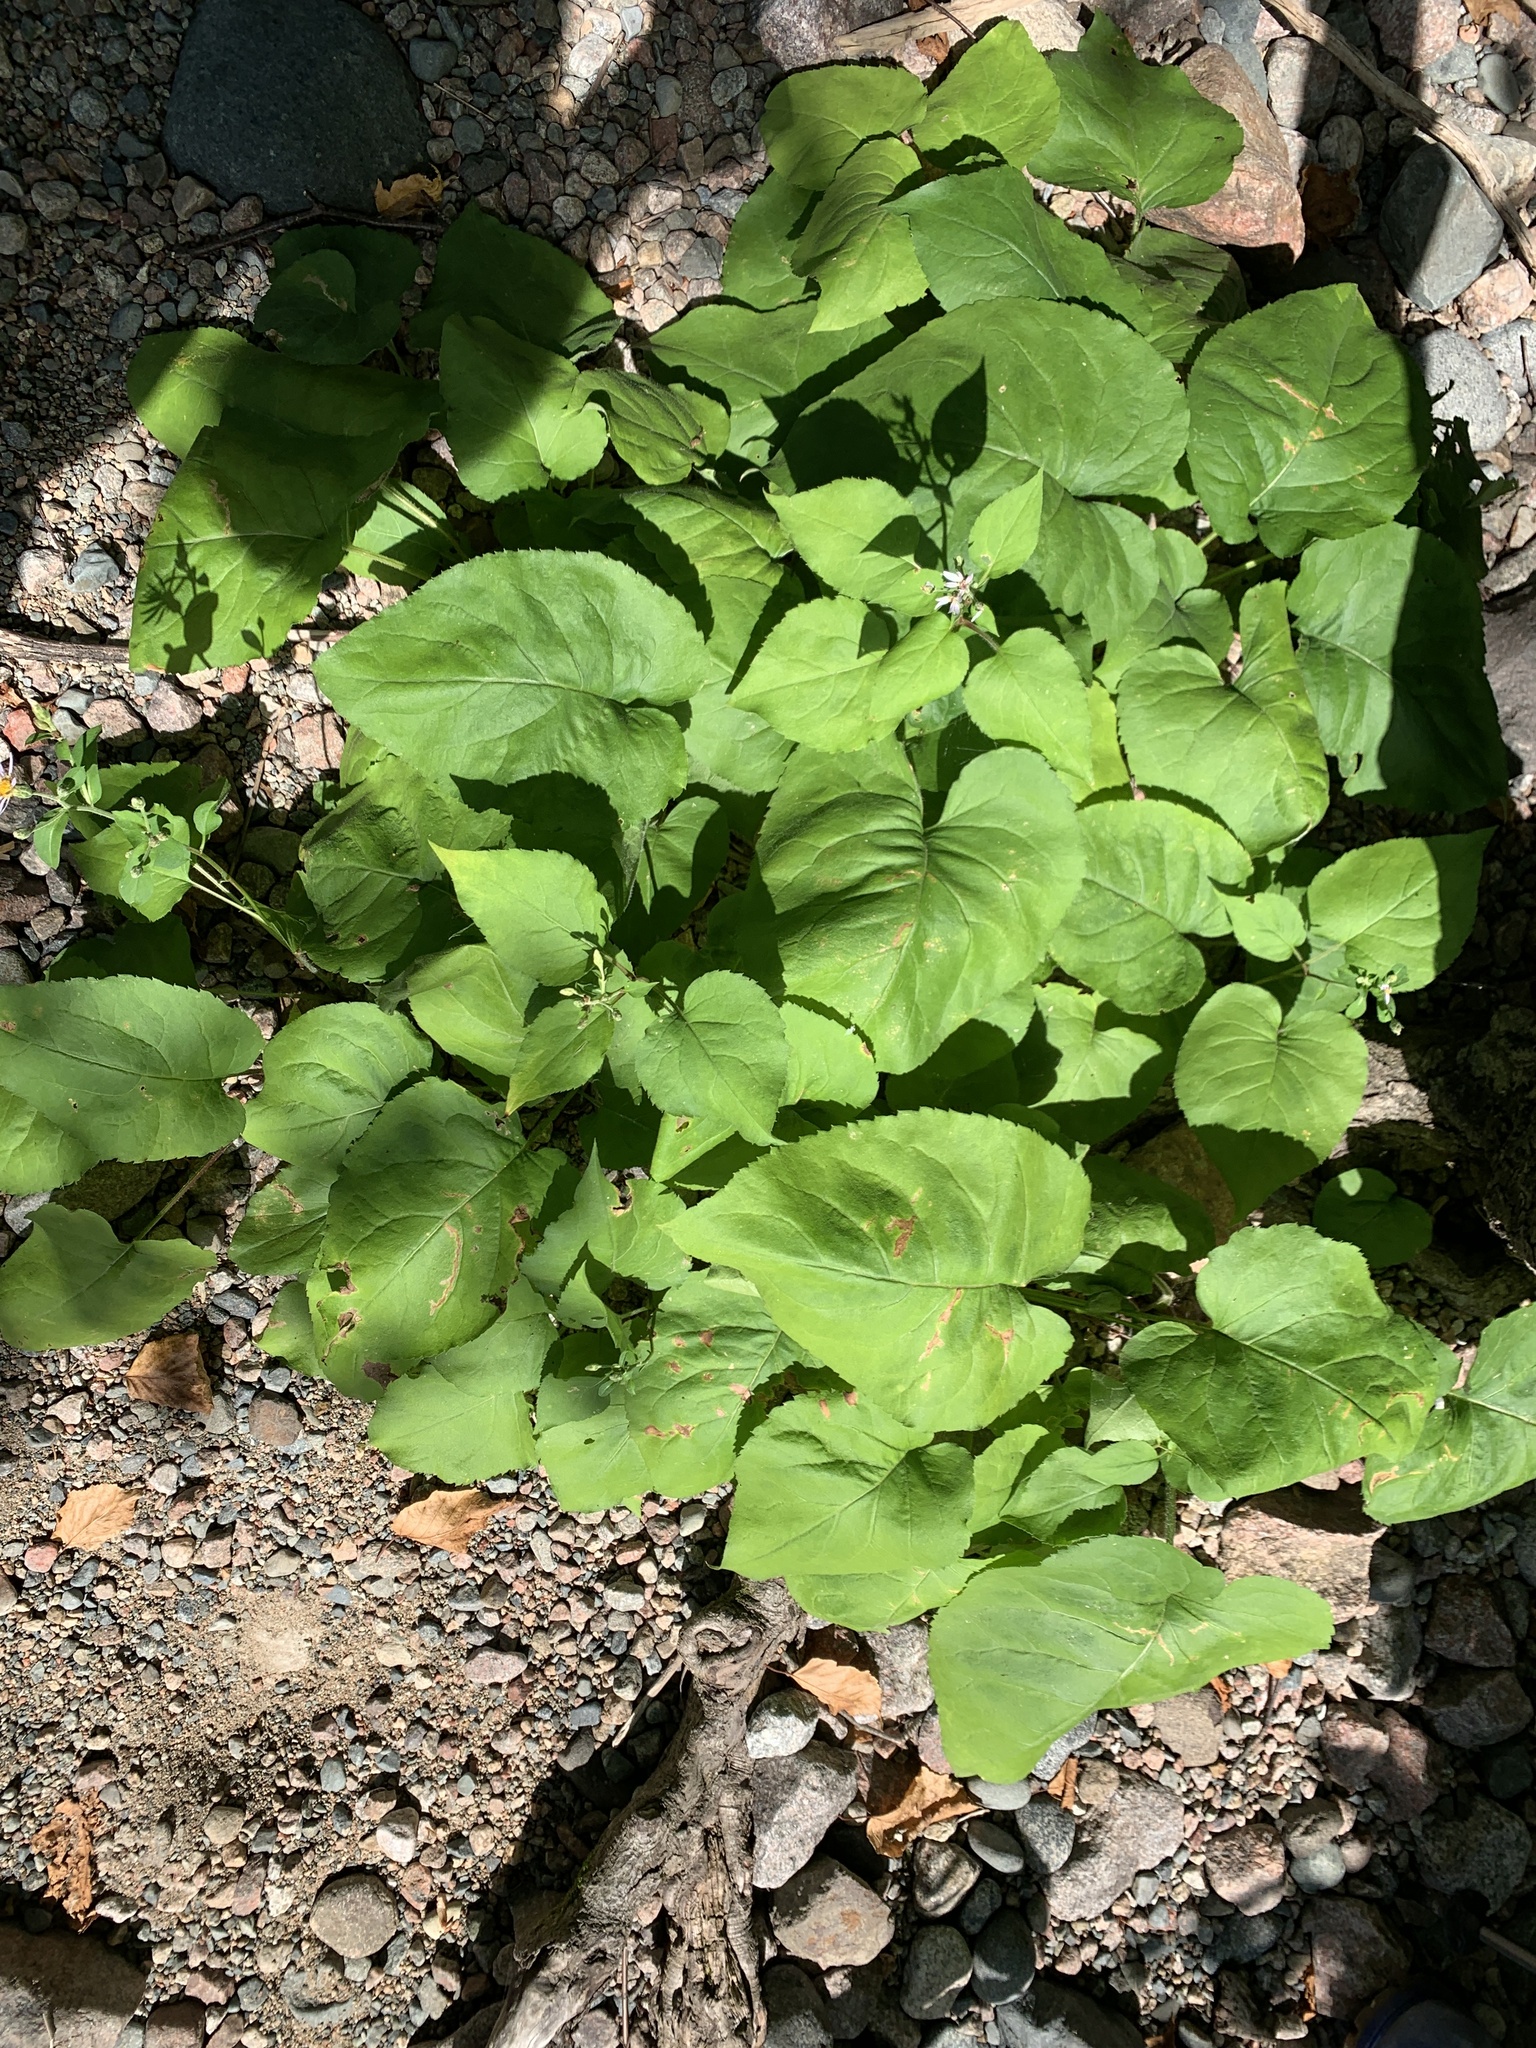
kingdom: Plantae
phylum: Tracheophyta
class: Magnoliopsida
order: Asterales
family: Asteraceae
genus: Eurybia
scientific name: Eurybia macrophylla
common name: Big-leaved aster
